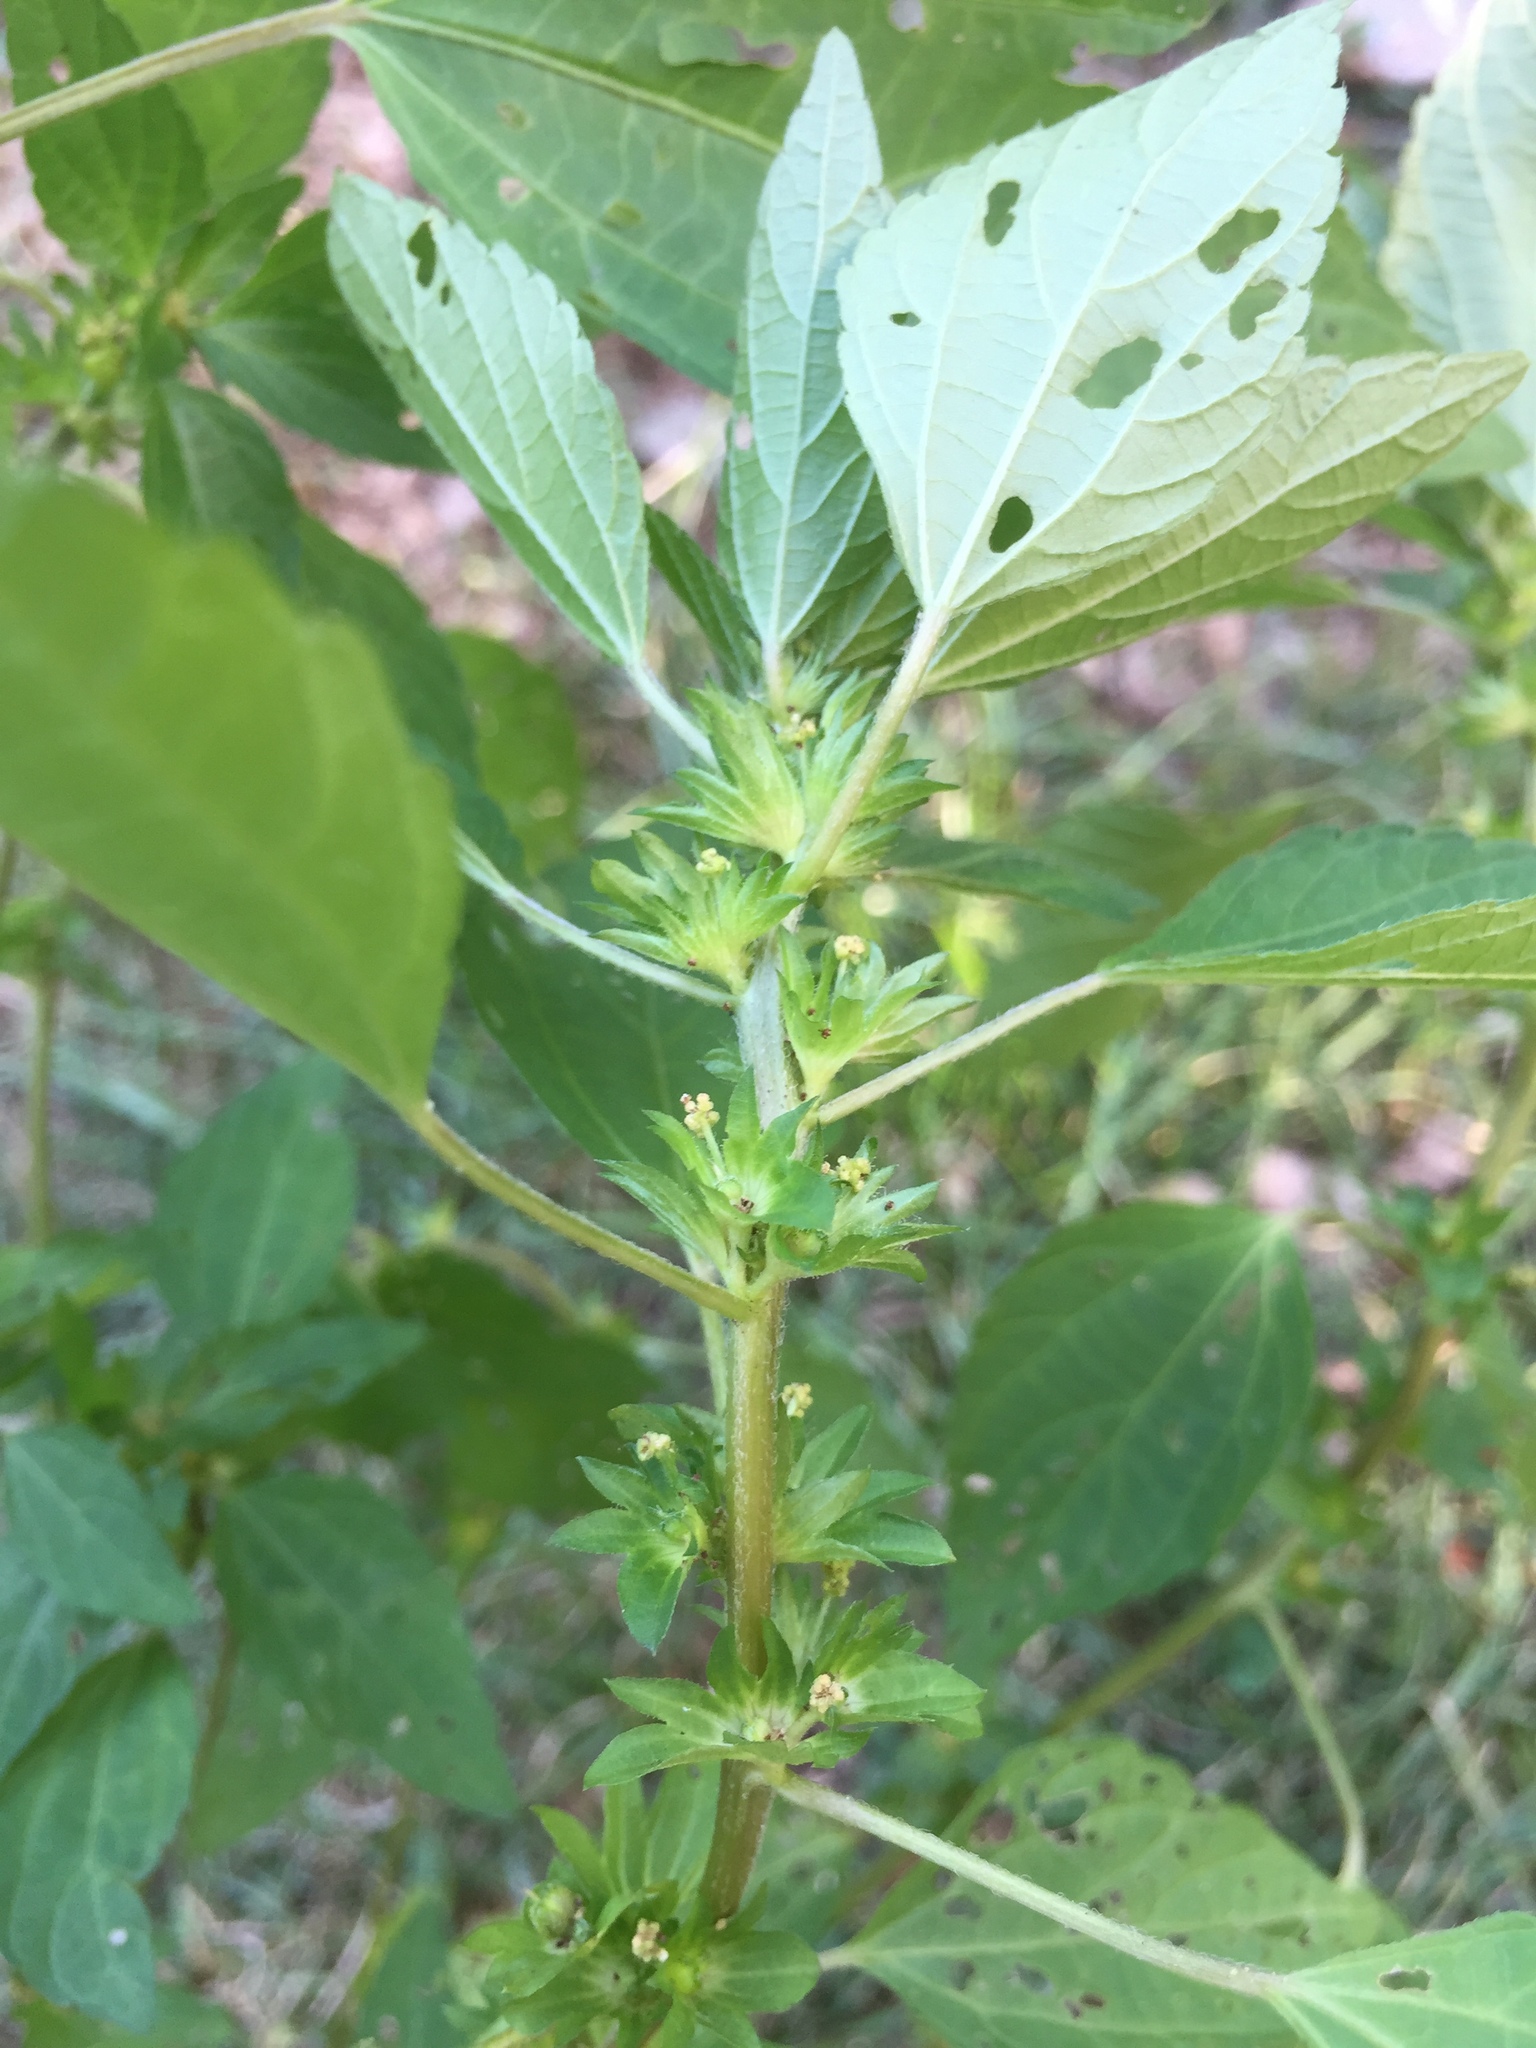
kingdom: Plantae
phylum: Tracheophyta
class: Magnoliopsida
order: Malpighiales
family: Euphorbiaceae
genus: Acalypha
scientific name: Acalypha rhomboidea
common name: Rhombic copperleaf
